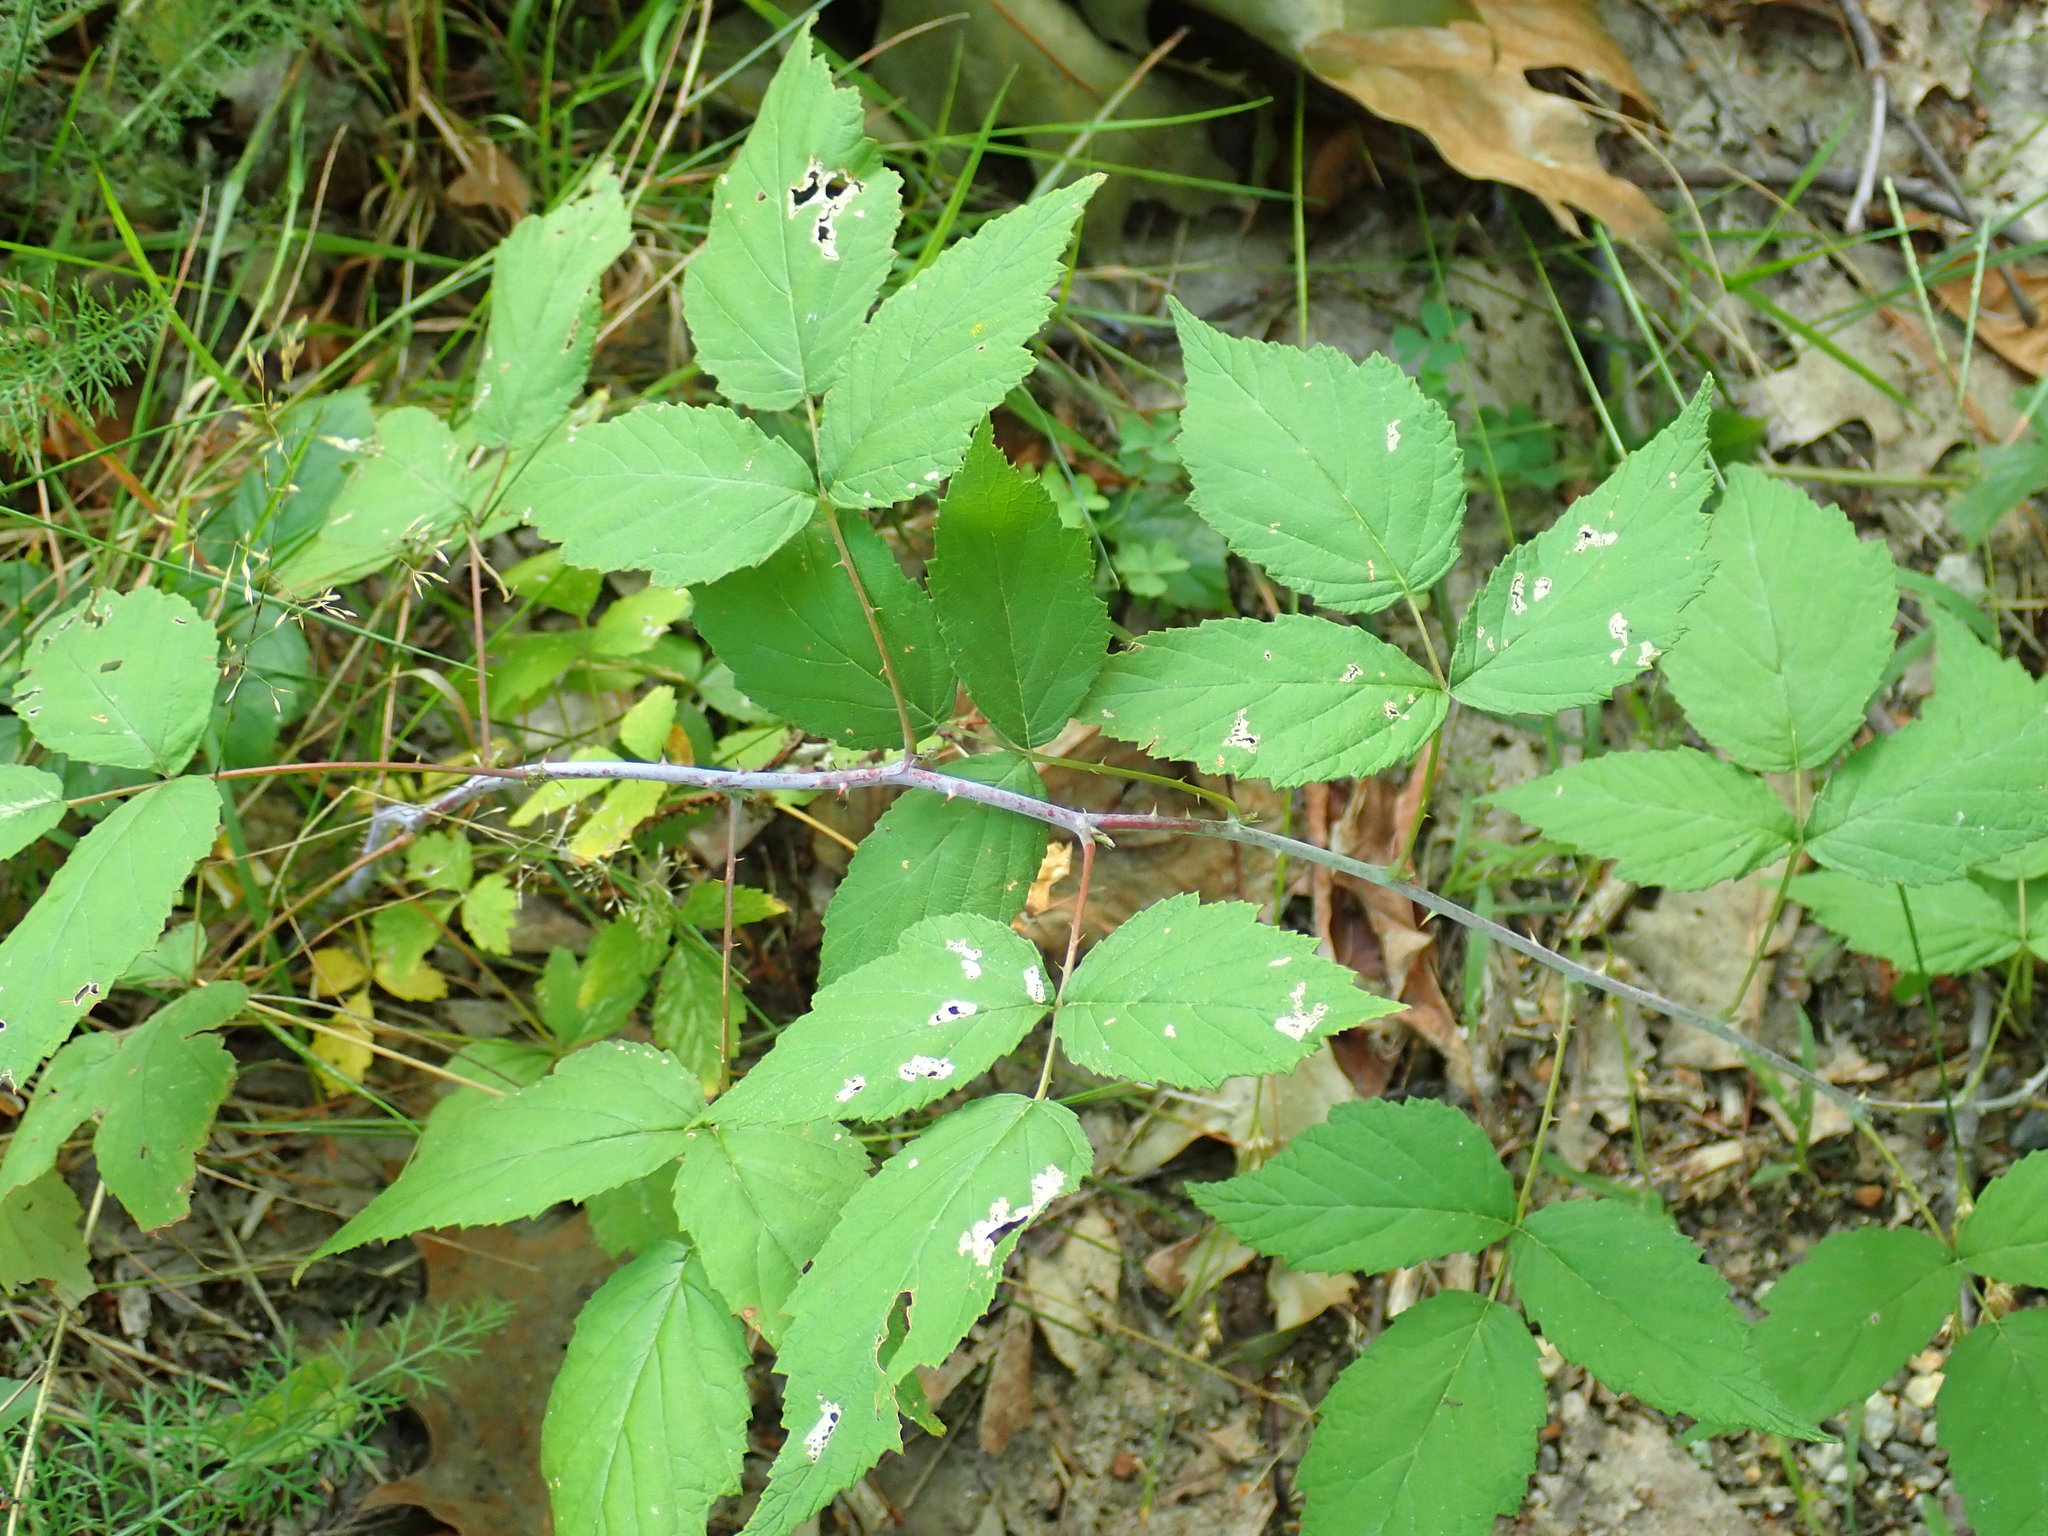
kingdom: Plantae
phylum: Tracheophyta
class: Magnoliopsida
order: Rosales
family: Rosaceae
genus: Rubus
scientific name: Rubus occidentalis
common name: Black raspberry
